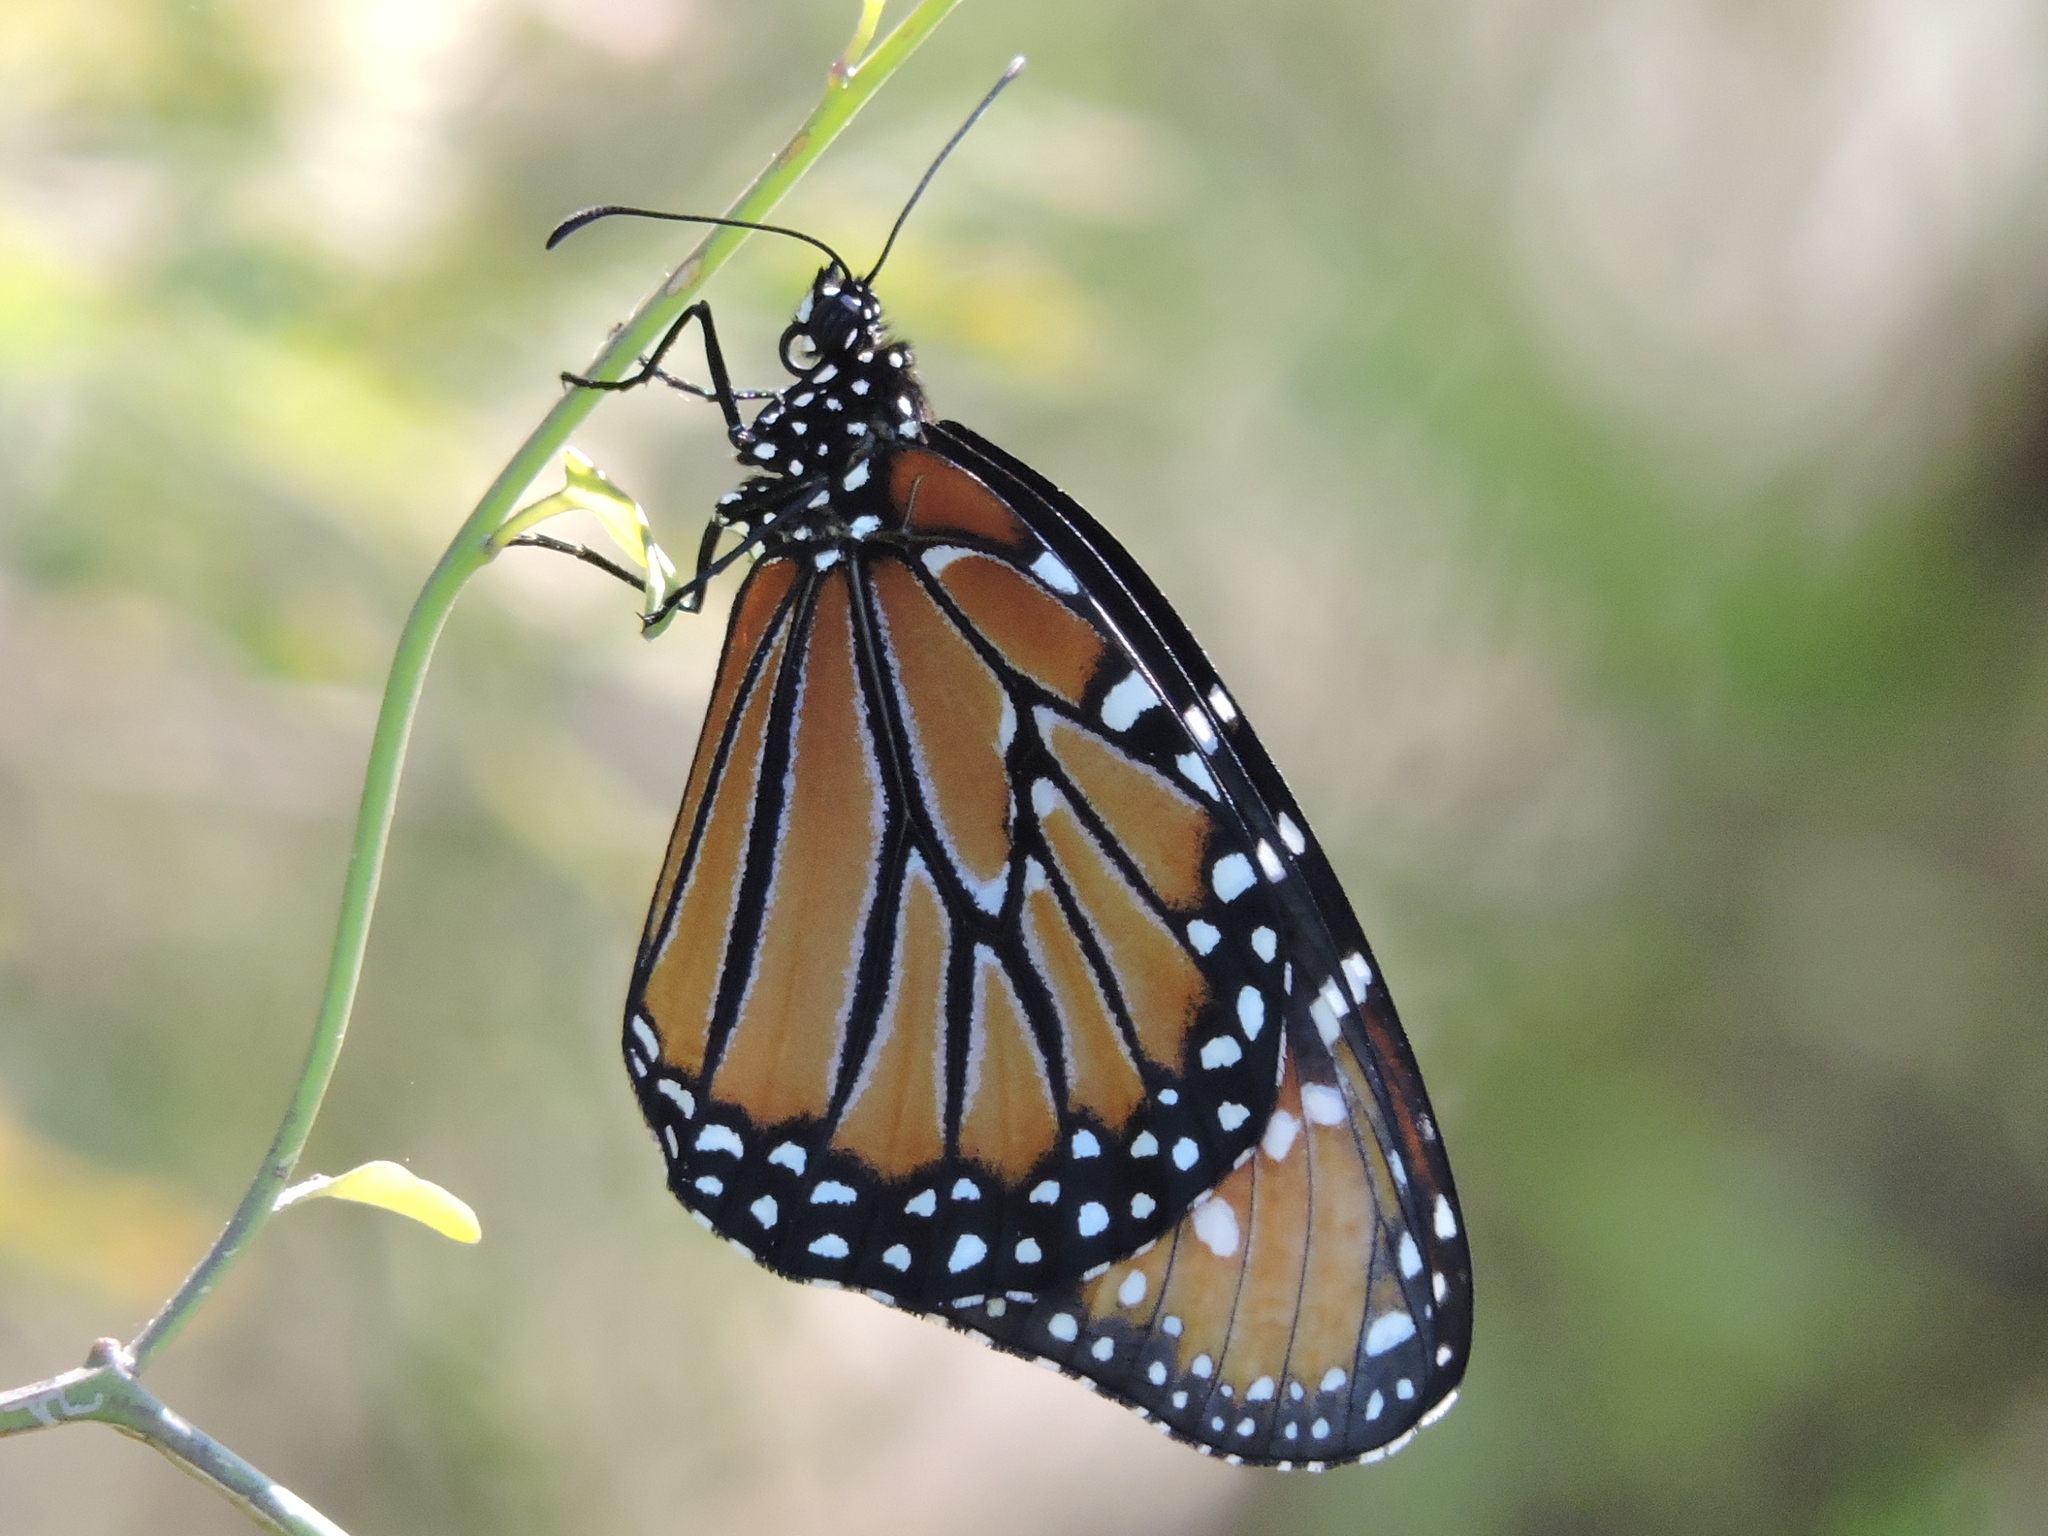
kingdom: Animalia
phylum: Arthropoda
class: Insecta
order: Lepidoptera
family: Nymphalidae
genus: Danaus
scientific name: Danaus gilippus
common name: Queen
